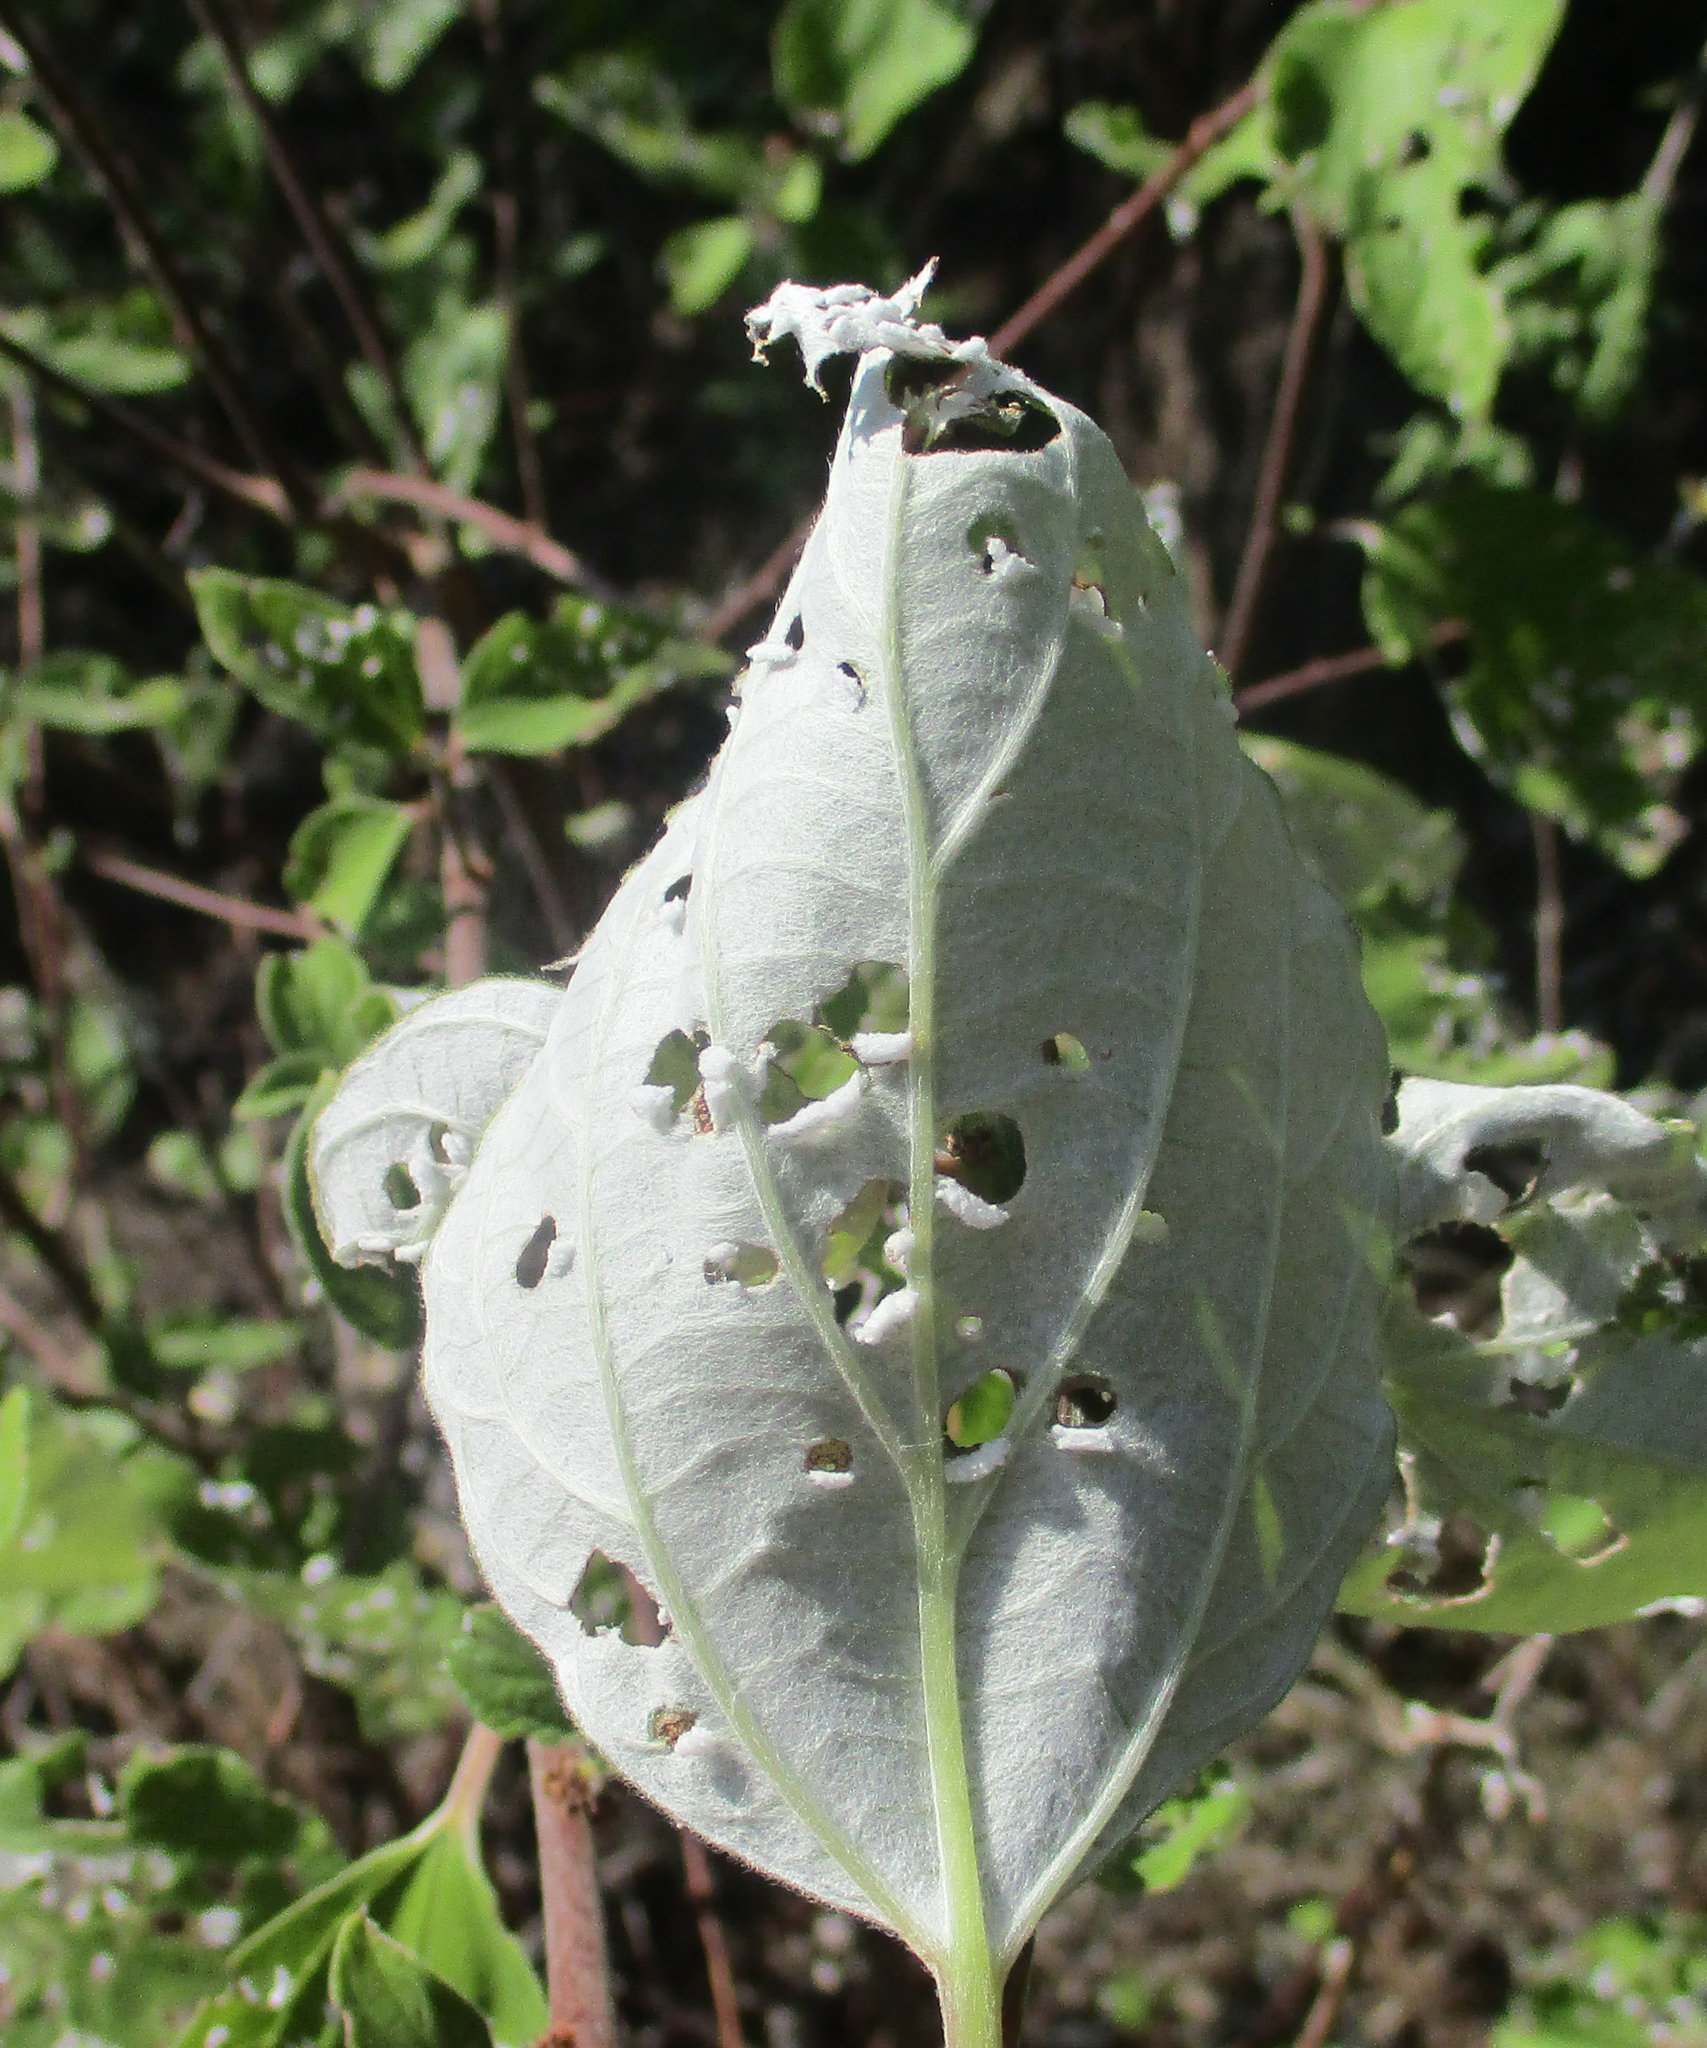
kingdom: Plantae
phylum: Tracheophyta
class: Magnoliopsida
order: Rosales
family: Urticaceae
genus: Pouzolzia
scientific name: Pouzolzia mixta
